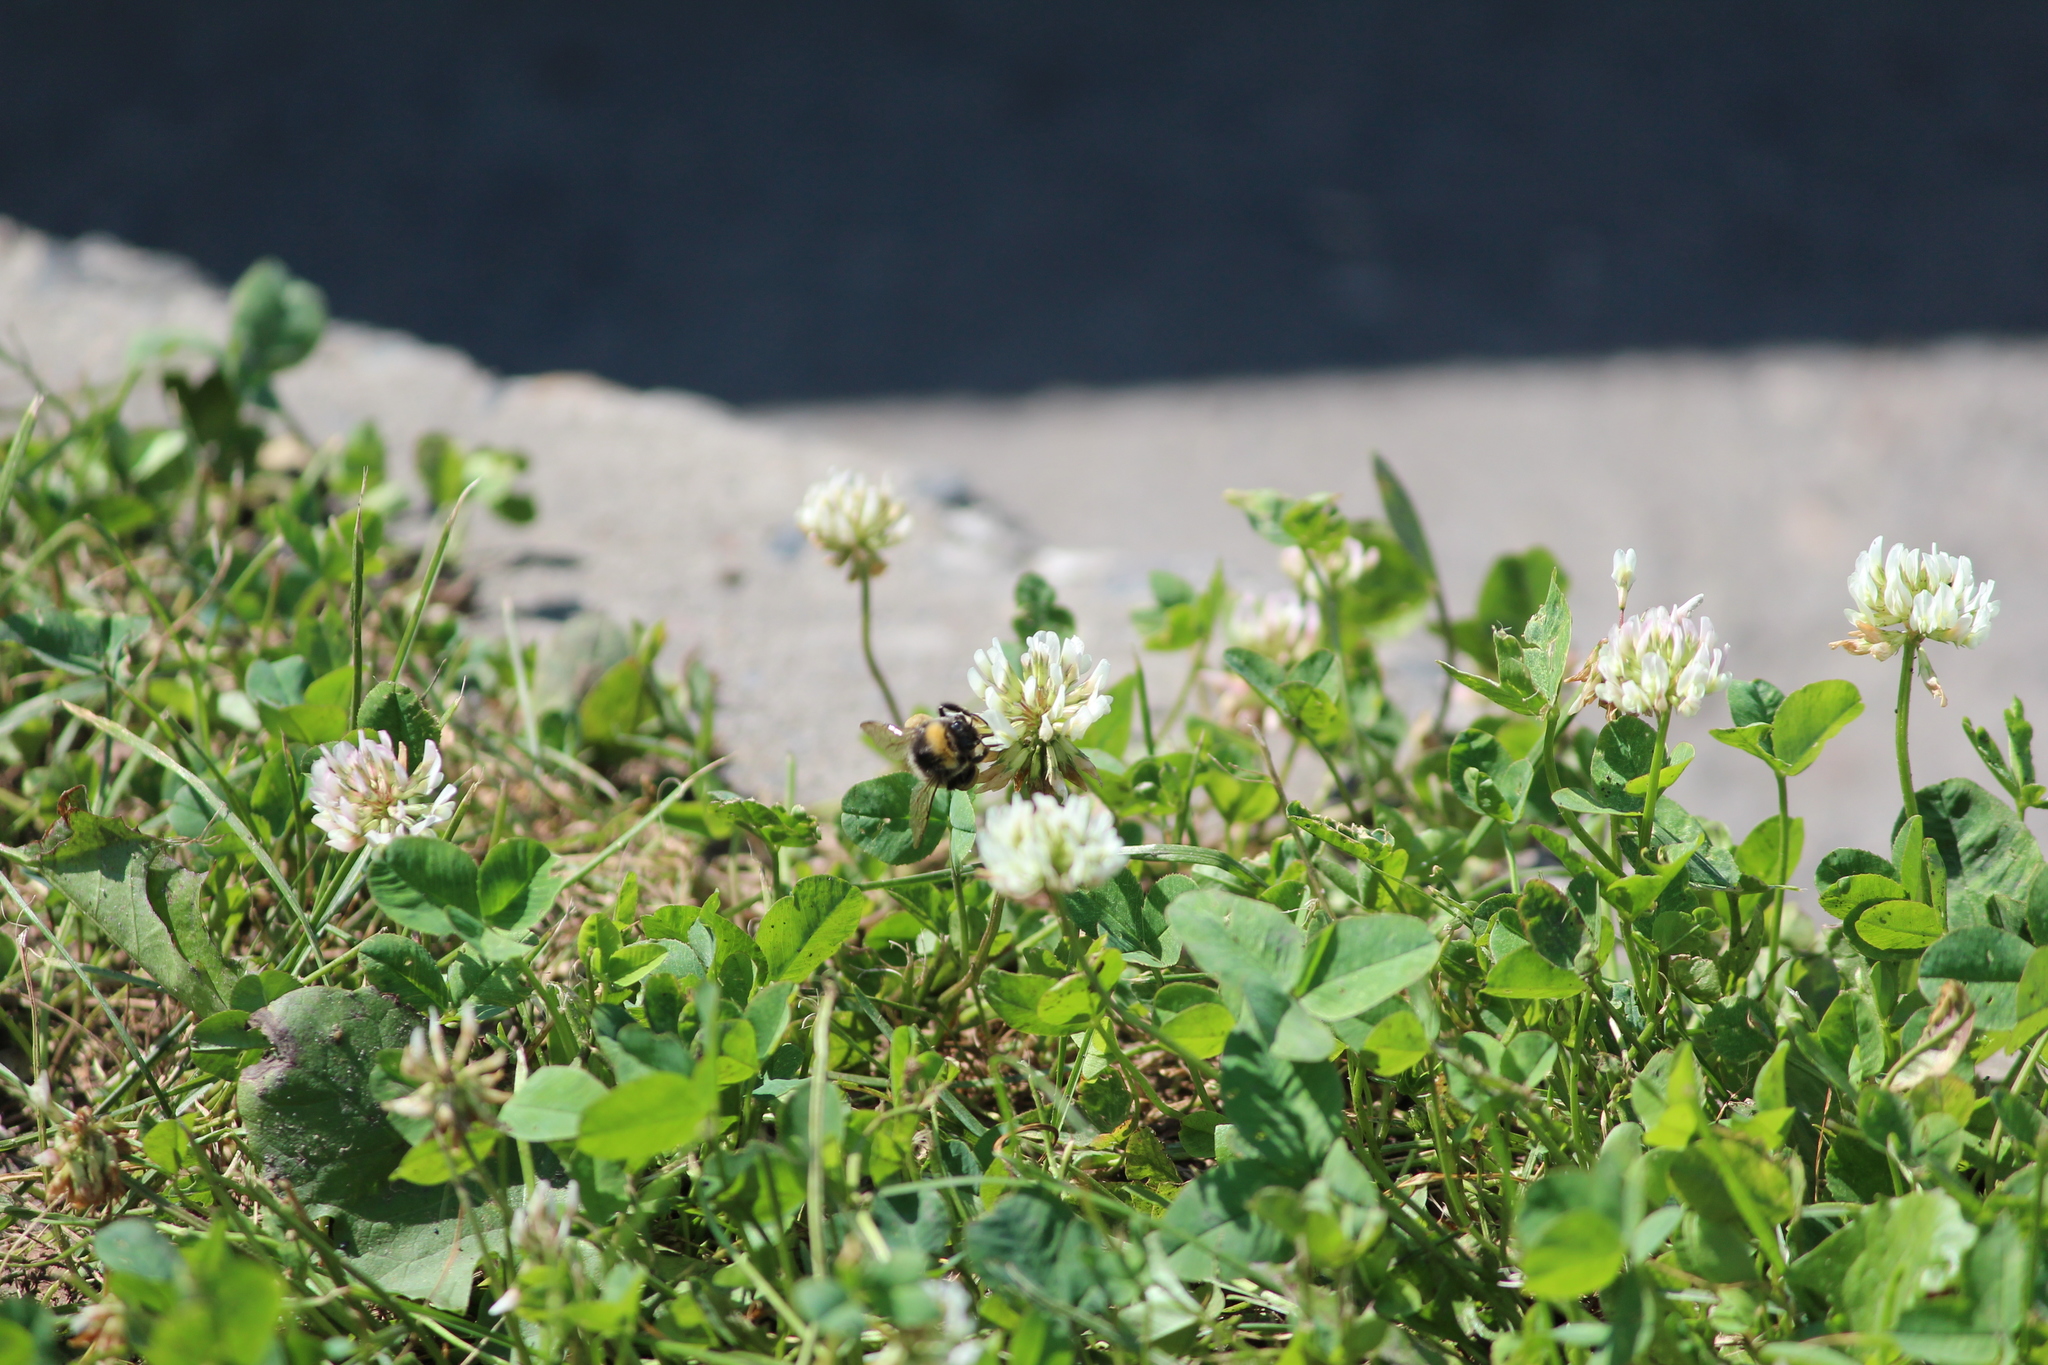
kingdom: Animalia
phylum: Arthropoda
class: Insecta
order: Hymenoptera
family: Apidae
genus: Bombus
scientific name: Bombus
